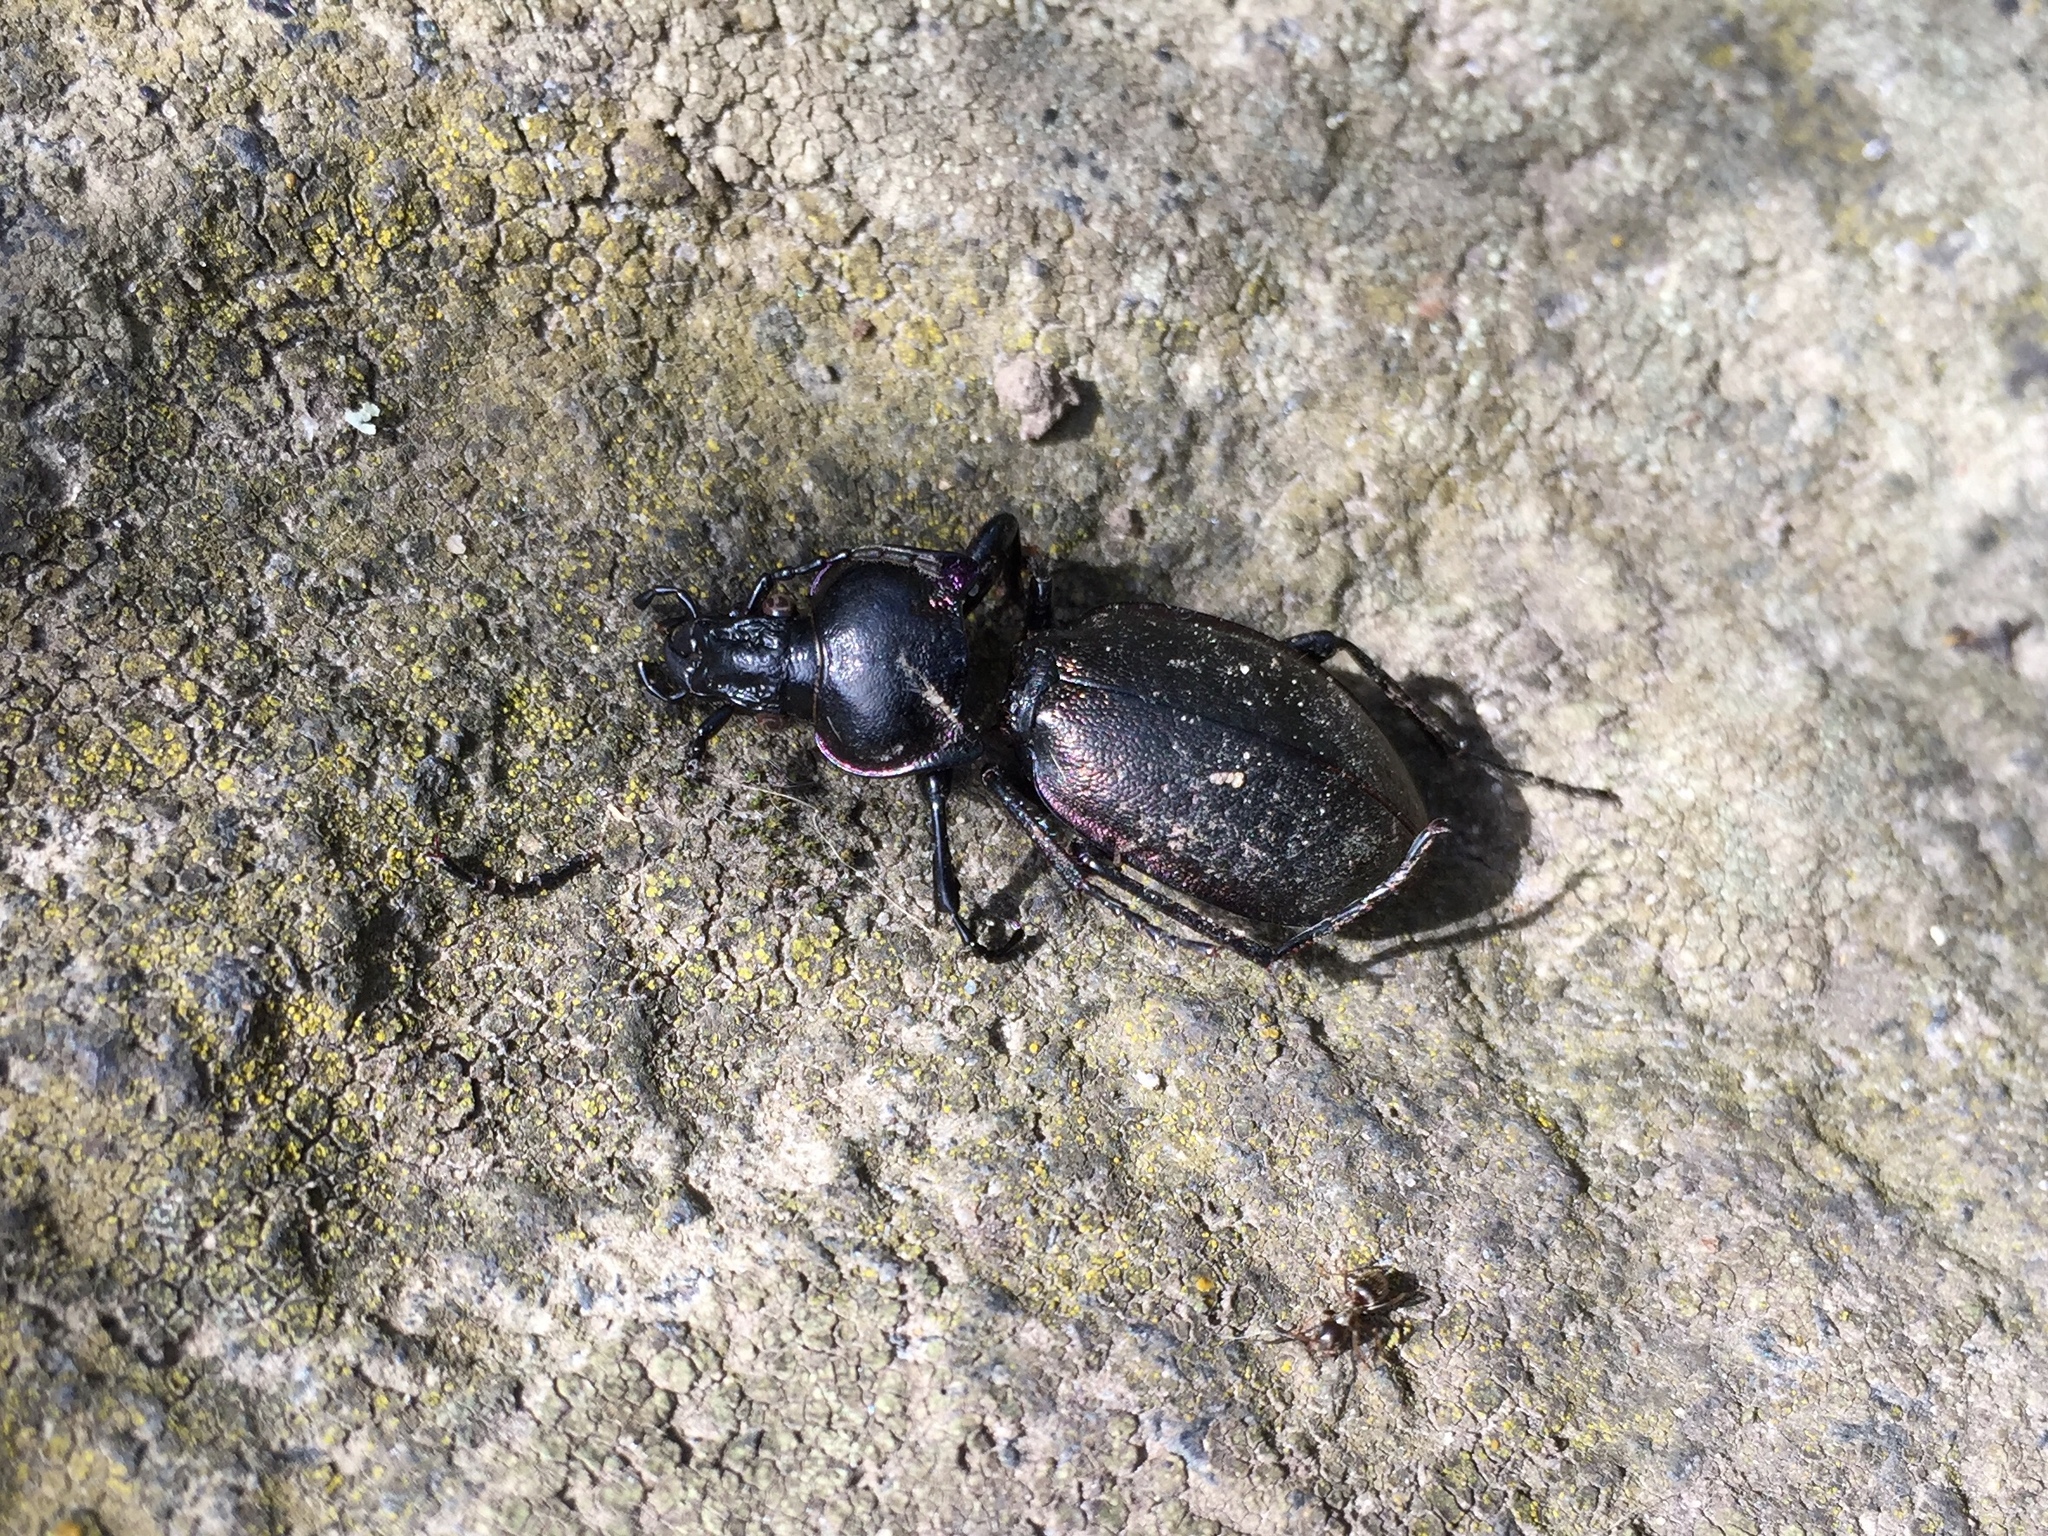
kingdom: Animalia
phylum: Arthropoda
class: Insecta
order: Coleoptera
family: Carabidae
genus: Carabus
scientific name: Carabus nemoralis
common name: European ground beetle
